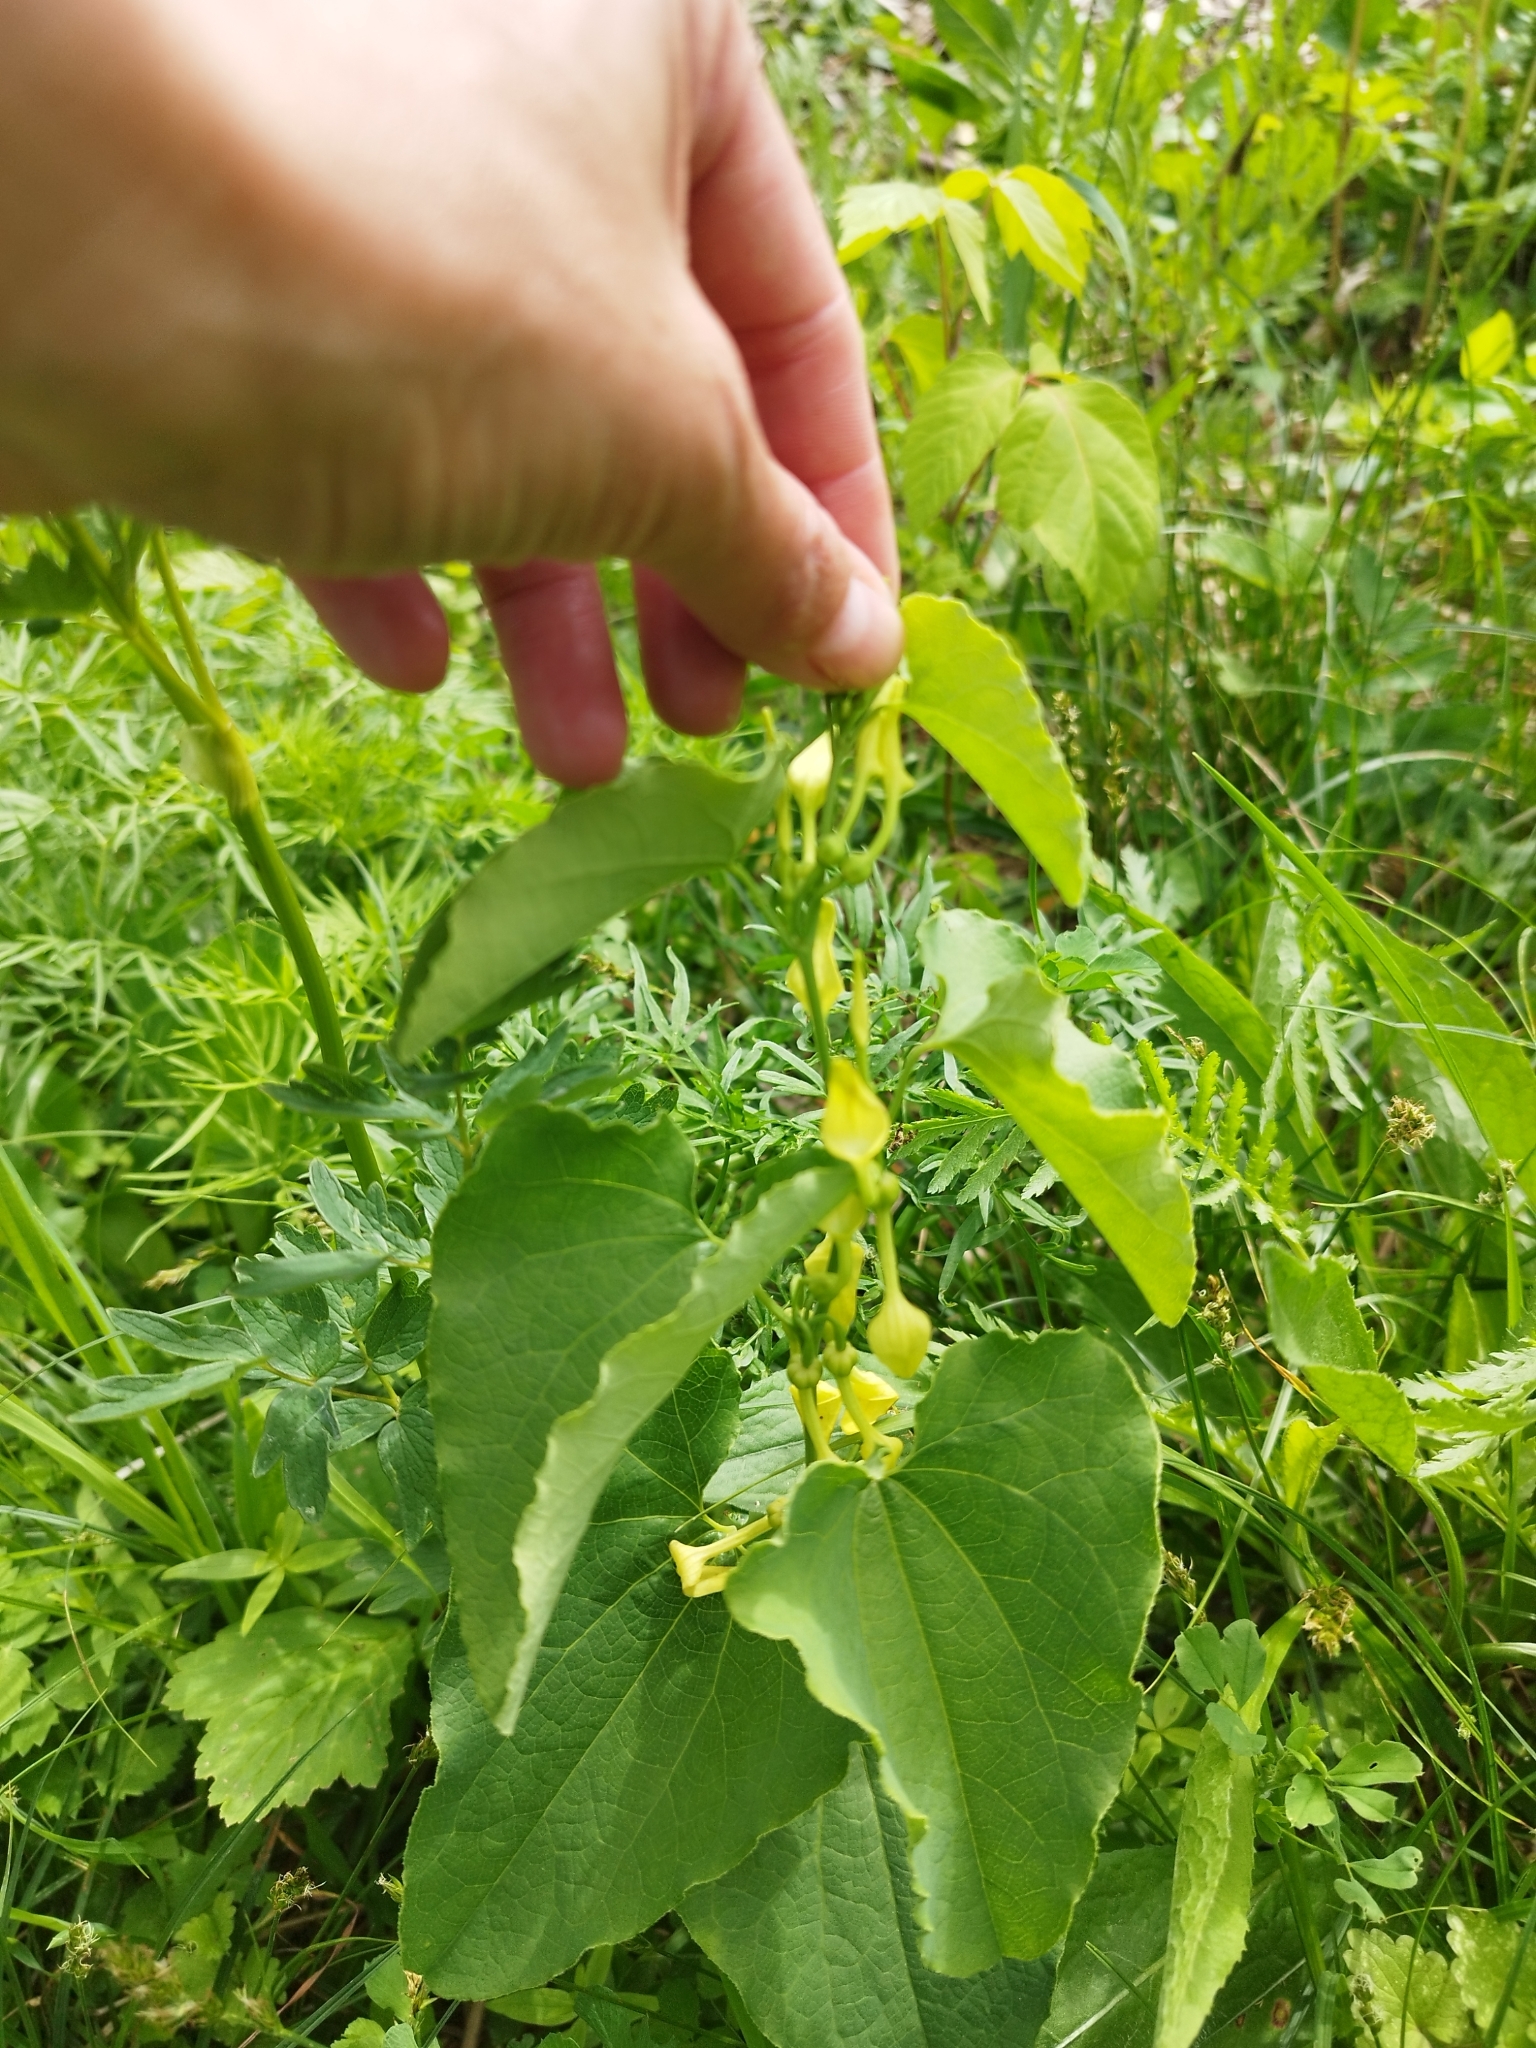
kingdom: Plantae
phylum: Tracheophyta
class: Magnoliopsida
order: Piperales
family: Aristolochiaceae
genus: Aristolochia
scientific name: Aristolochia clematitis
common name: Birthwort
